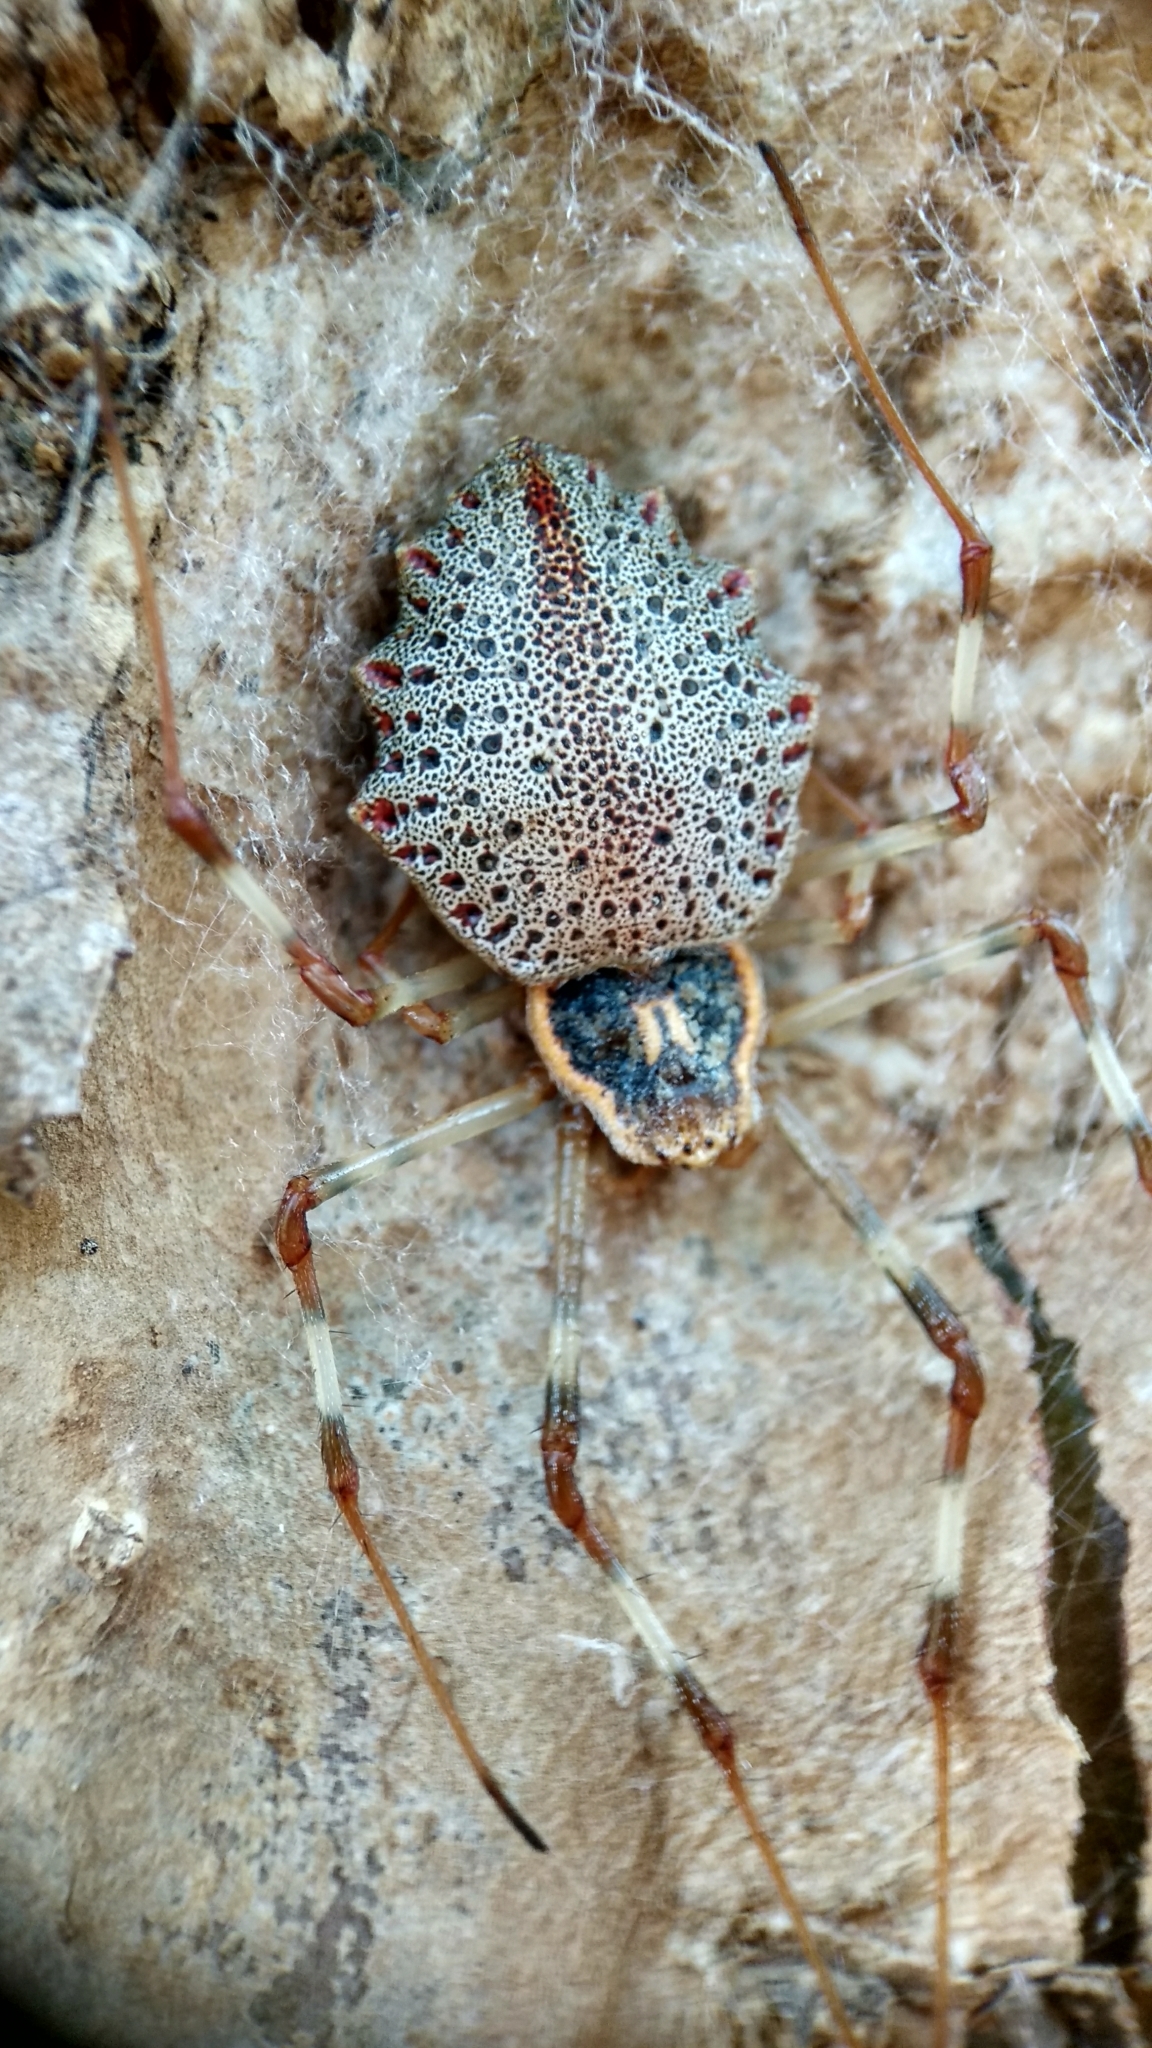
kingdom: Animalia
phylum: Arthropoda
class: Arachnida
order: Araneae
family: Araneidae
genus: Herennia
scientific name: Herennia multipuncta
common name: Spotted coin spider
